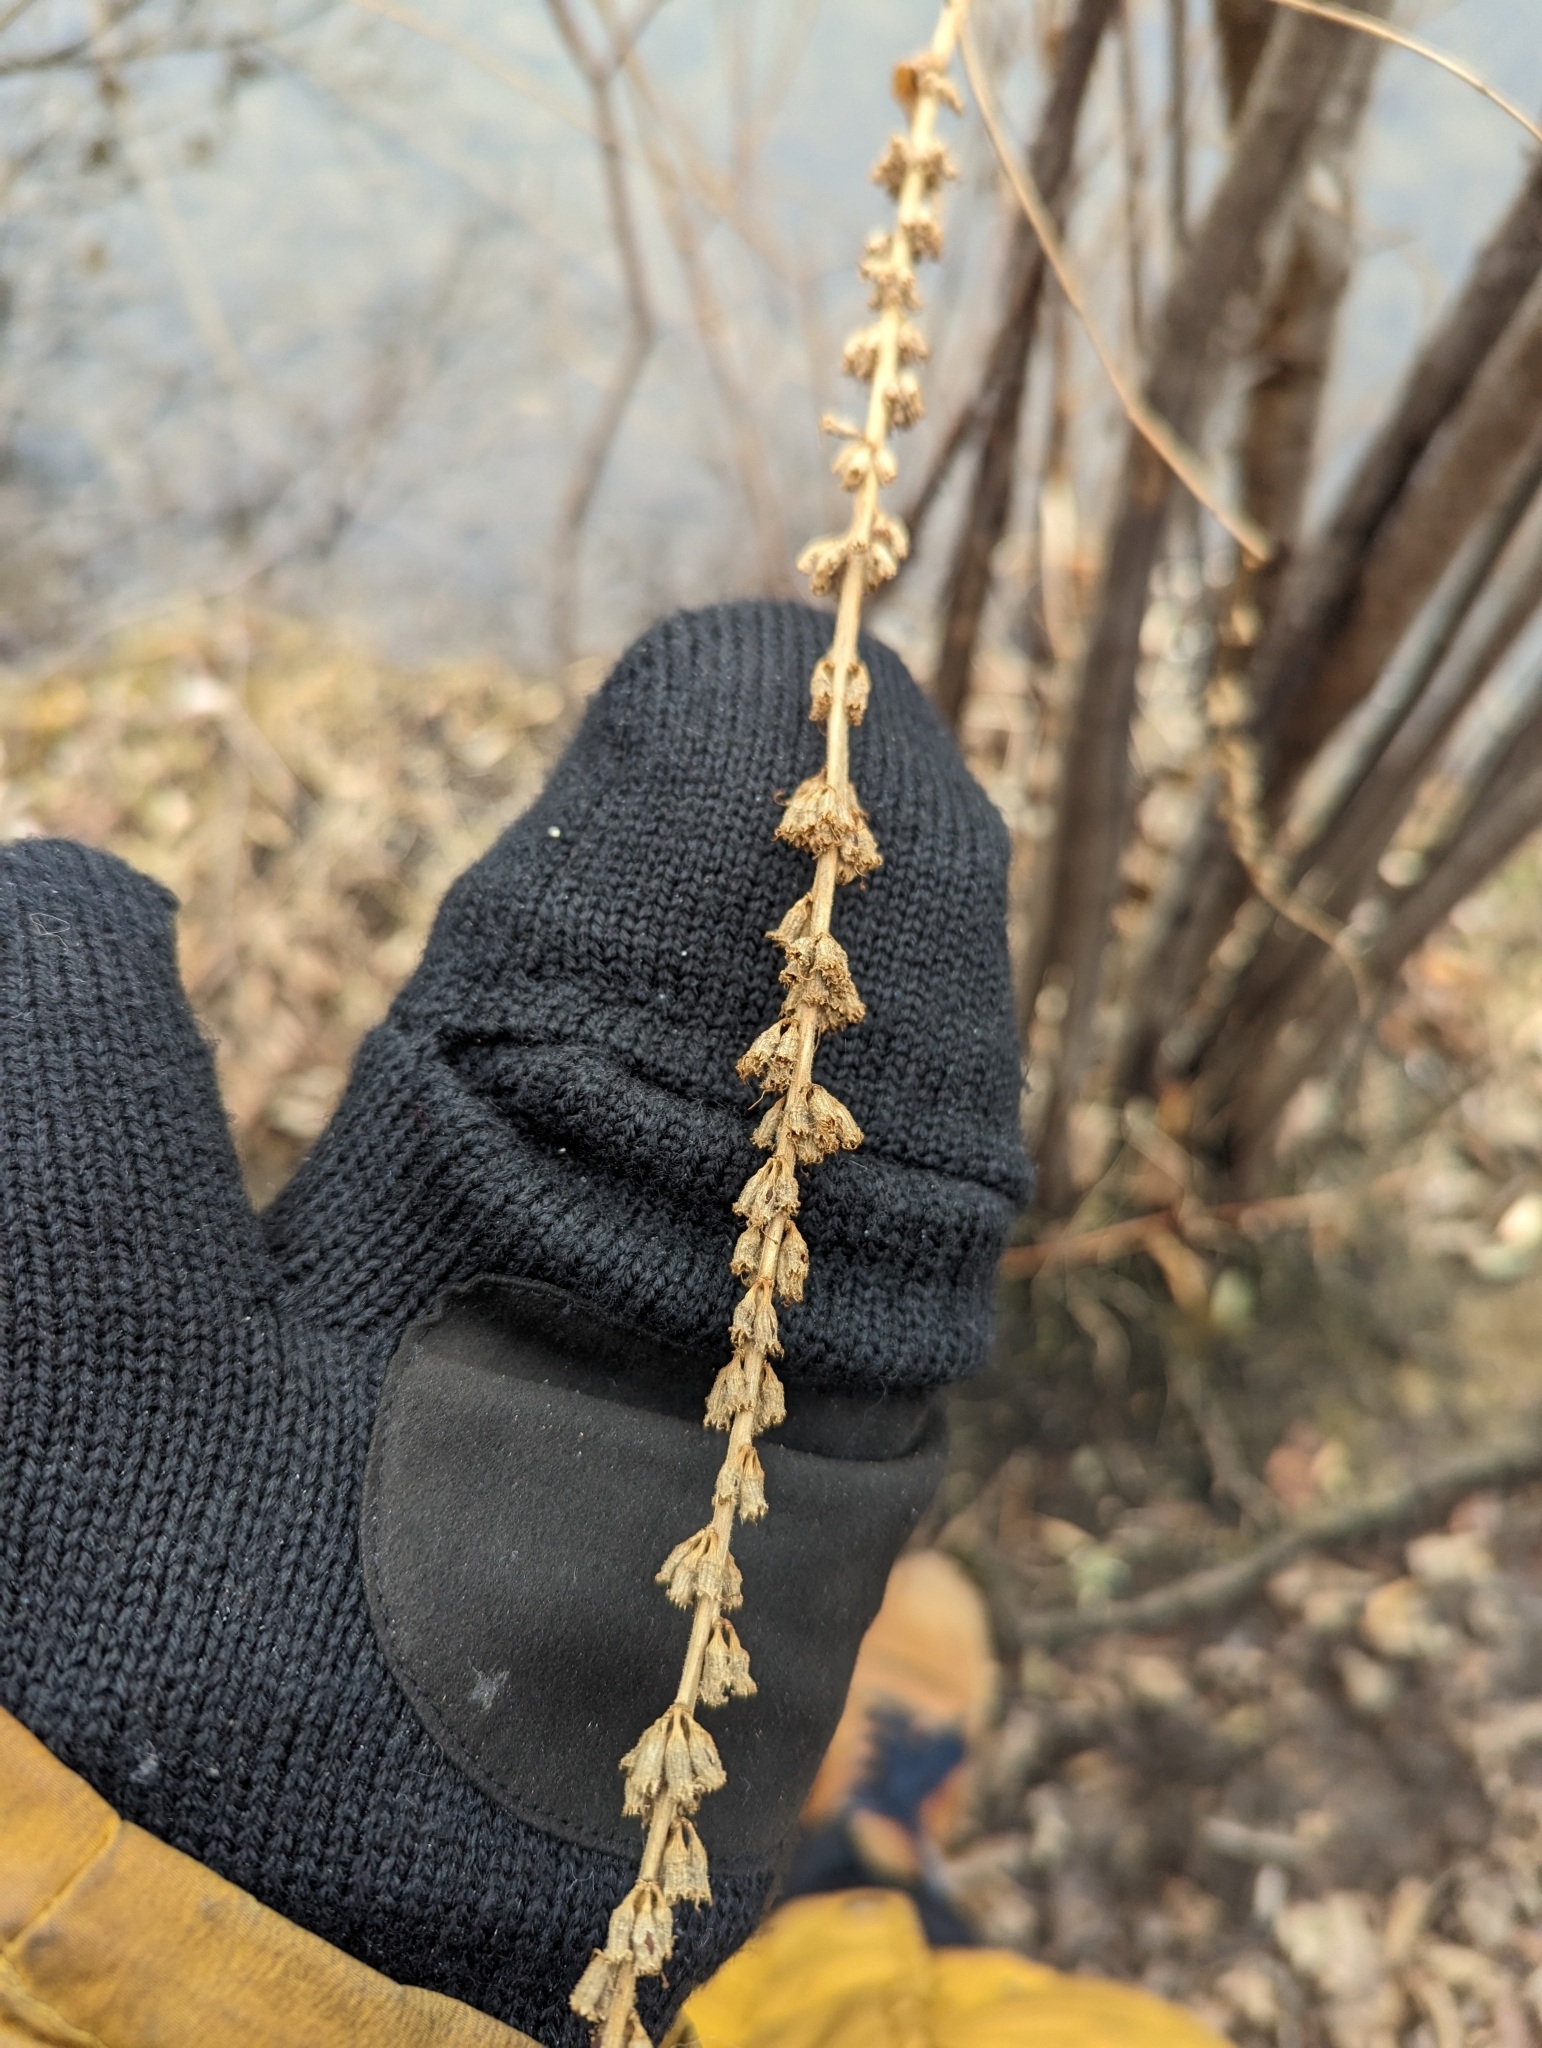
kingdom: Plantae
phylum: Tracheophyta
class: Magnoliopsida
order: Myrtales
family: Lythraceae
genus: Lythrum
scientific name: Lythrum salicaria
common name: Purple loosestrife
